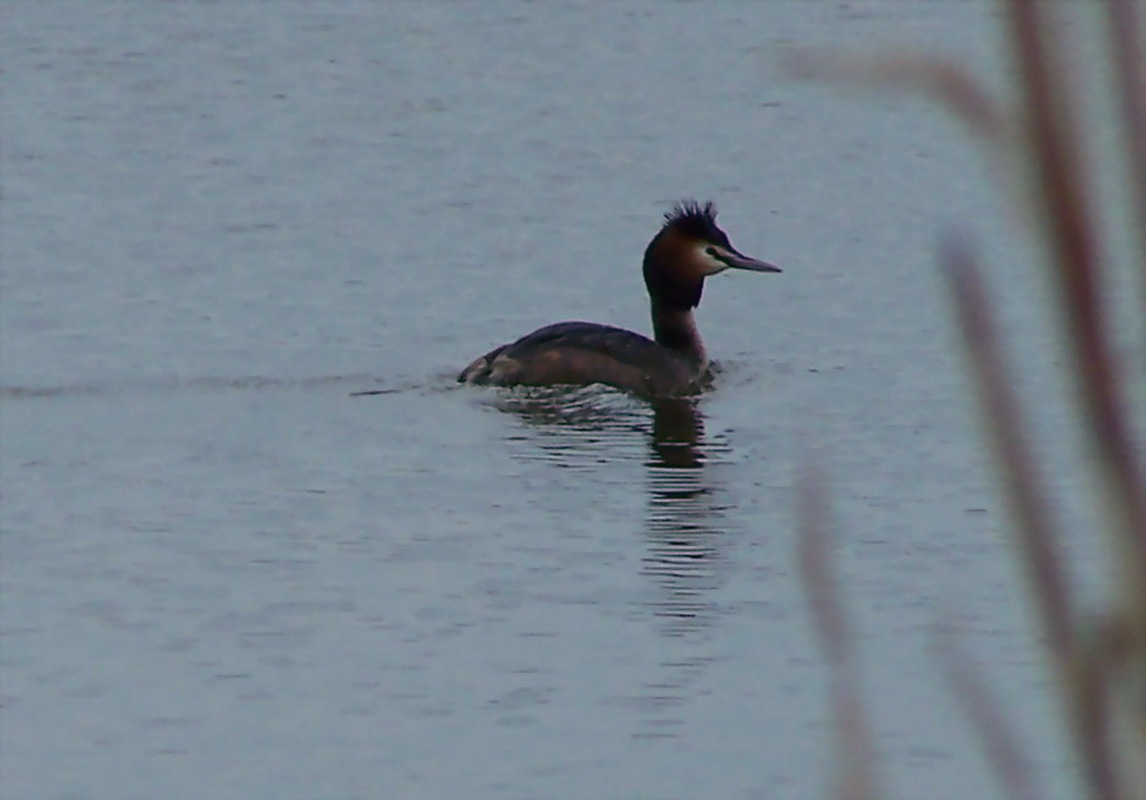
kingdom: Animalia
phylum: Chordata
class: Aves
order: Podicipediformes
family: Podicipedidae
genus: Podiceps
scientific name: Podiceps cristatus
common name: Great crested grebe
